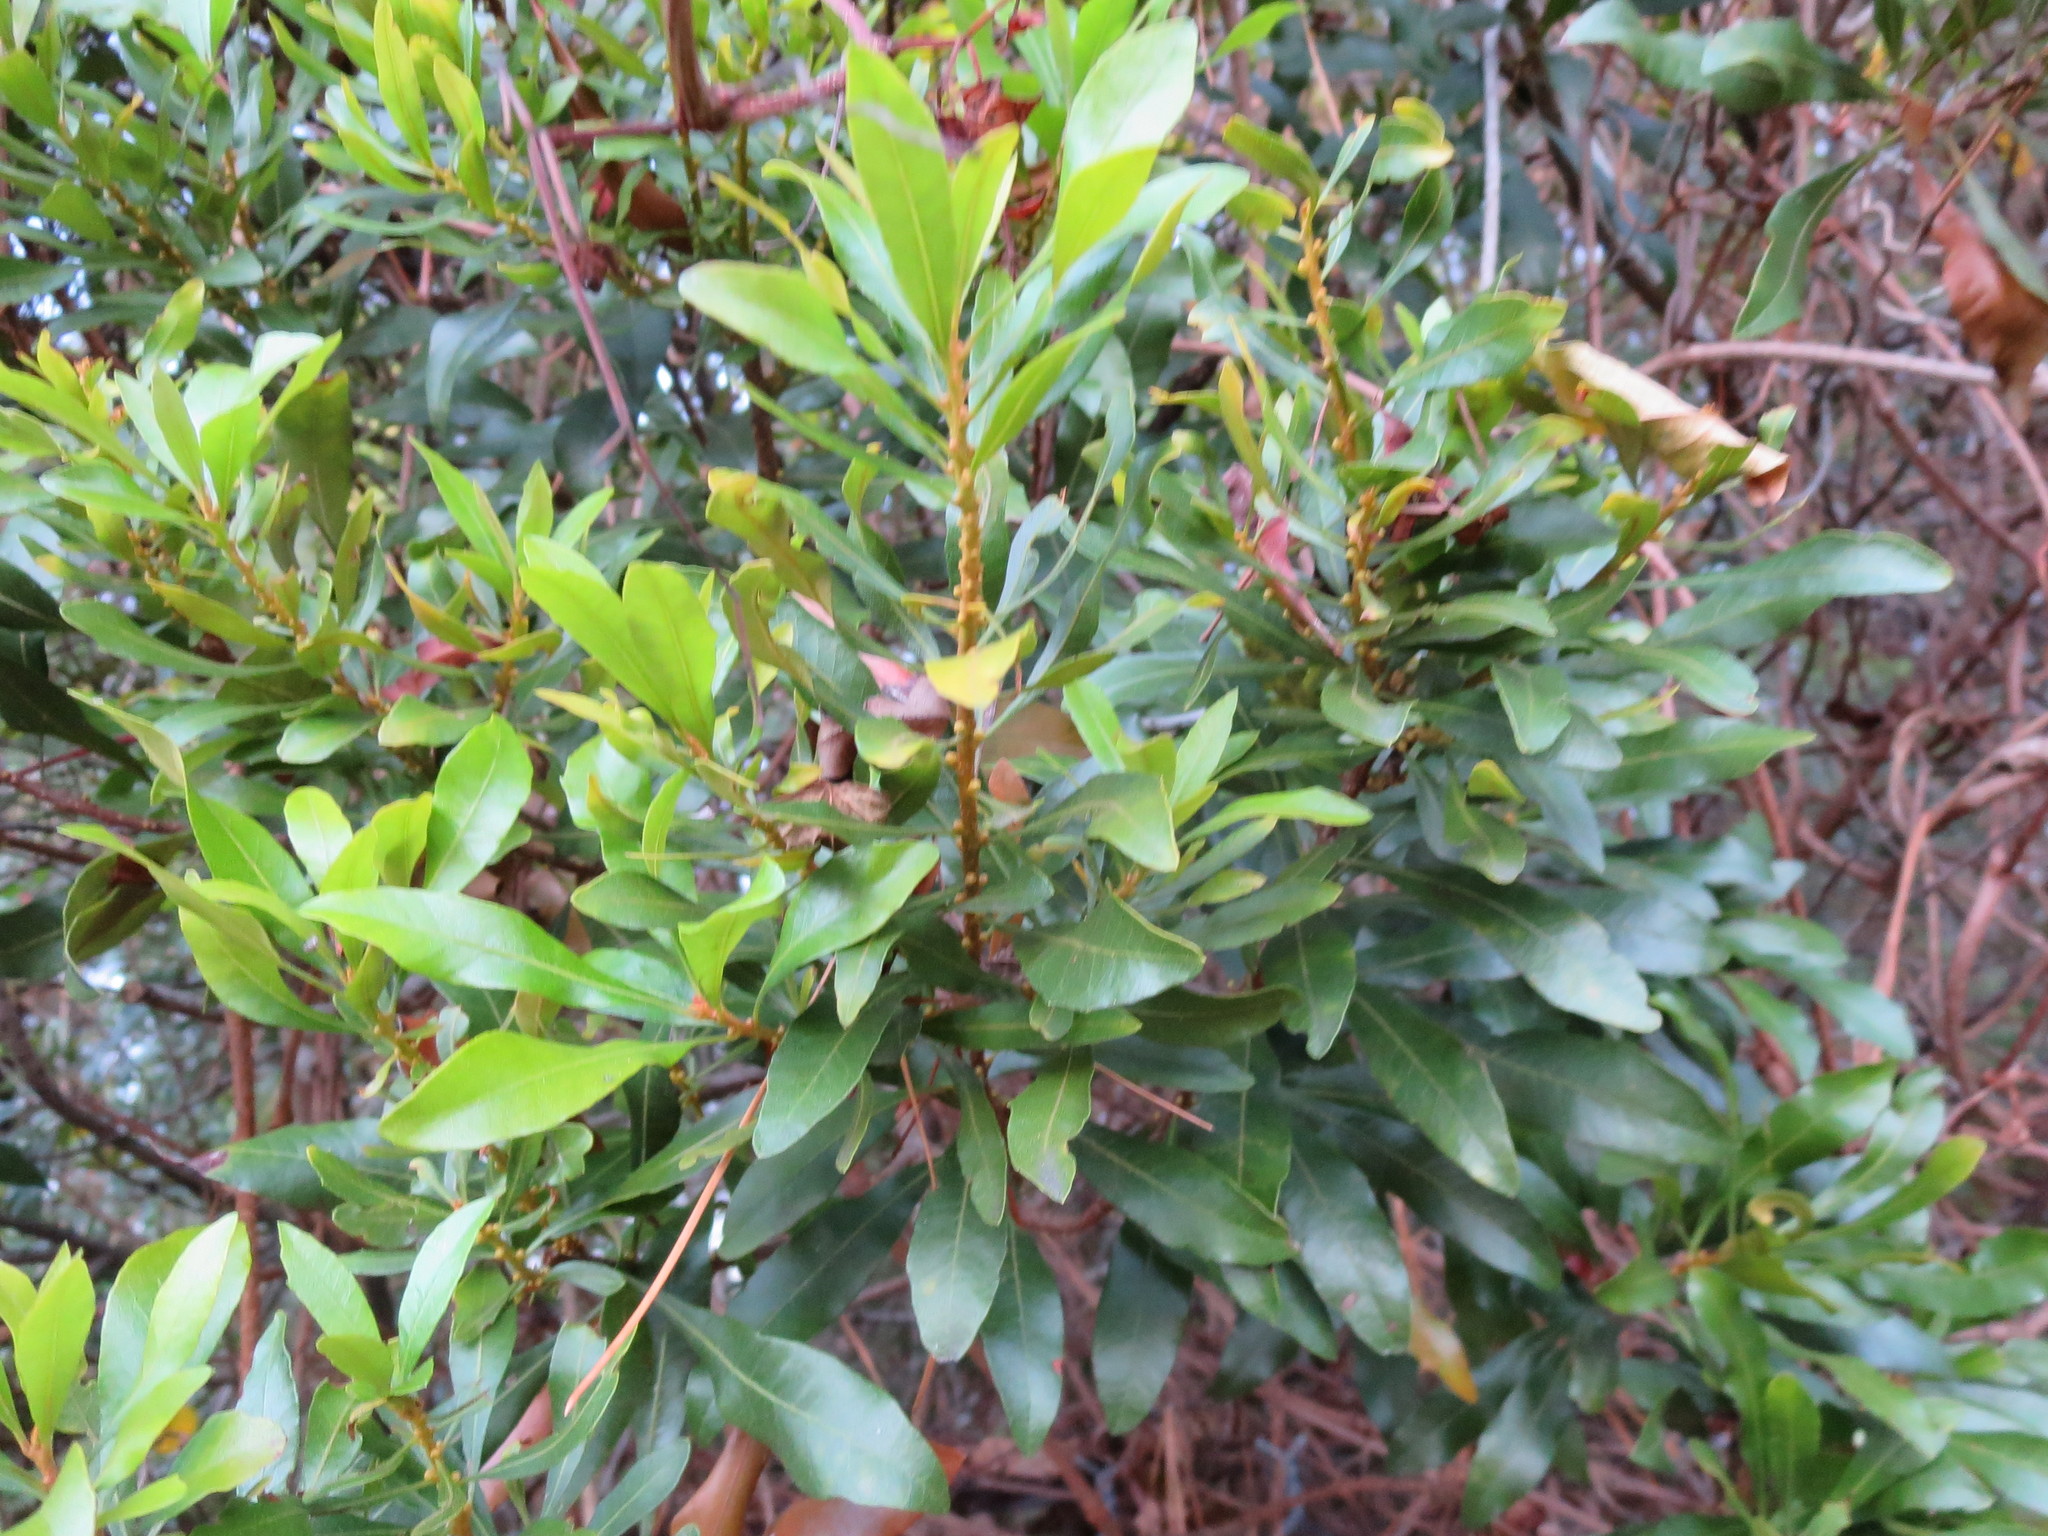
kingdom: Plantae
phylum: Tracheophyta
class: Magnoliopsida
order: Fagales
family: Myricaceae
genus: Morella
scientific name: Morella cerifera
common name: Wax myrtle
